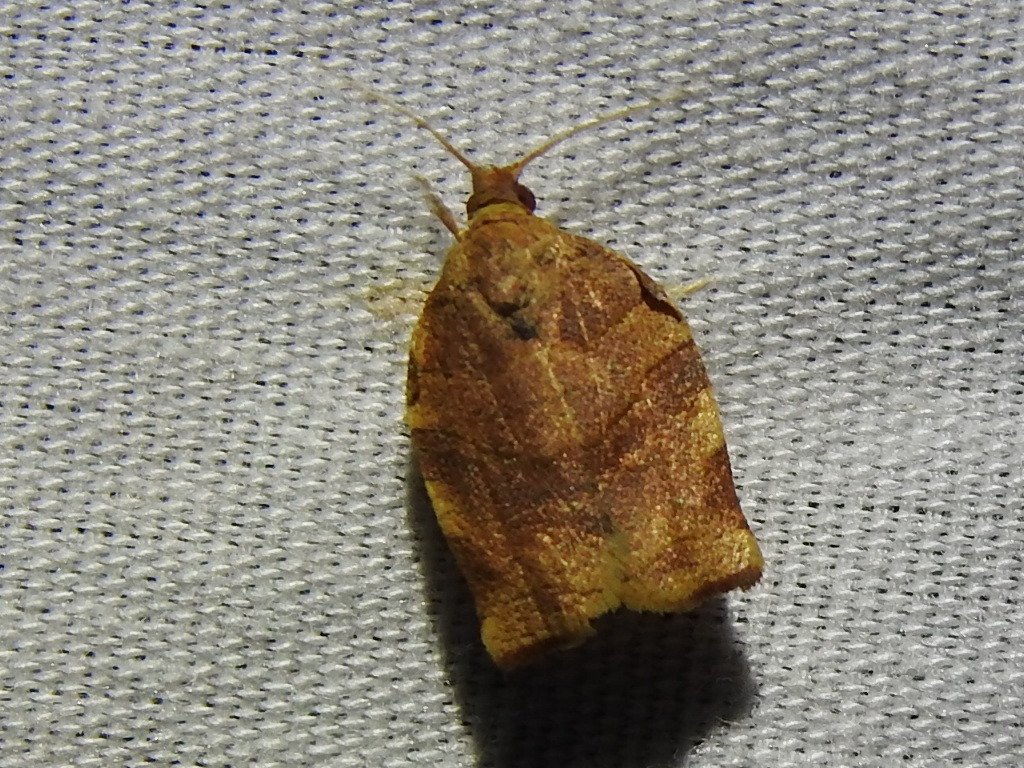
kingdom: Animalia
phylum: Arthropoda
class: Insecta
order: Lepidoptera
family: Tortricidae
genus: Choristoneura
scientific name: Choristoneura rosaceana
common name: Oblique-banded leafroller moth
